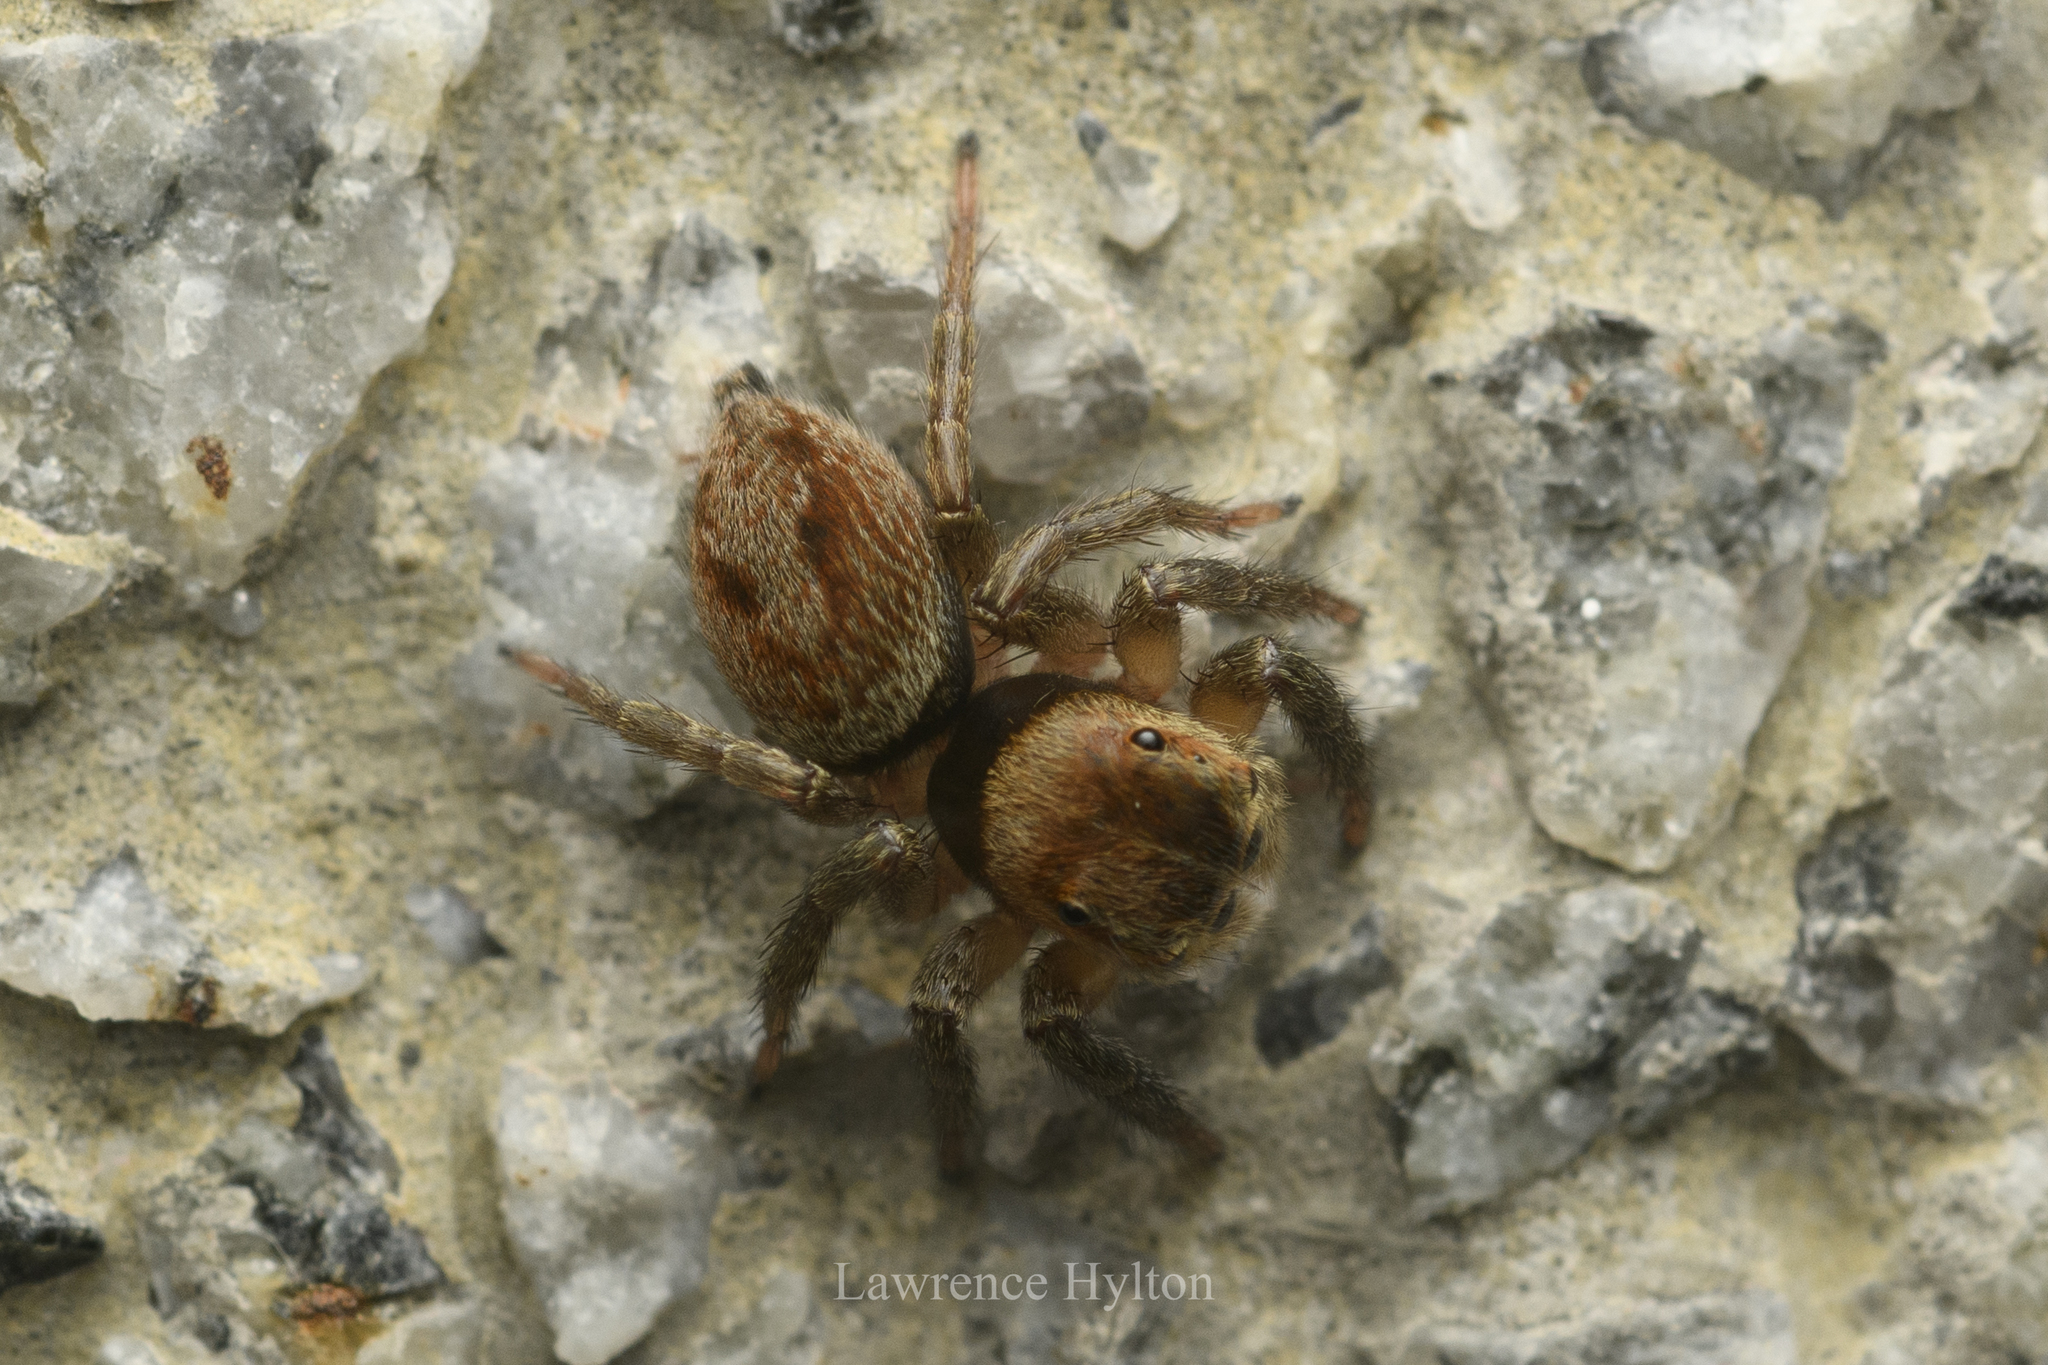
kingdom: Animalia
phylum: Arthropoda
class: Arachnida
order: Araneae
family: Salticidae
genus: Hasarius
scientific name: Hasarius adansoni
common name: Jumping spider
